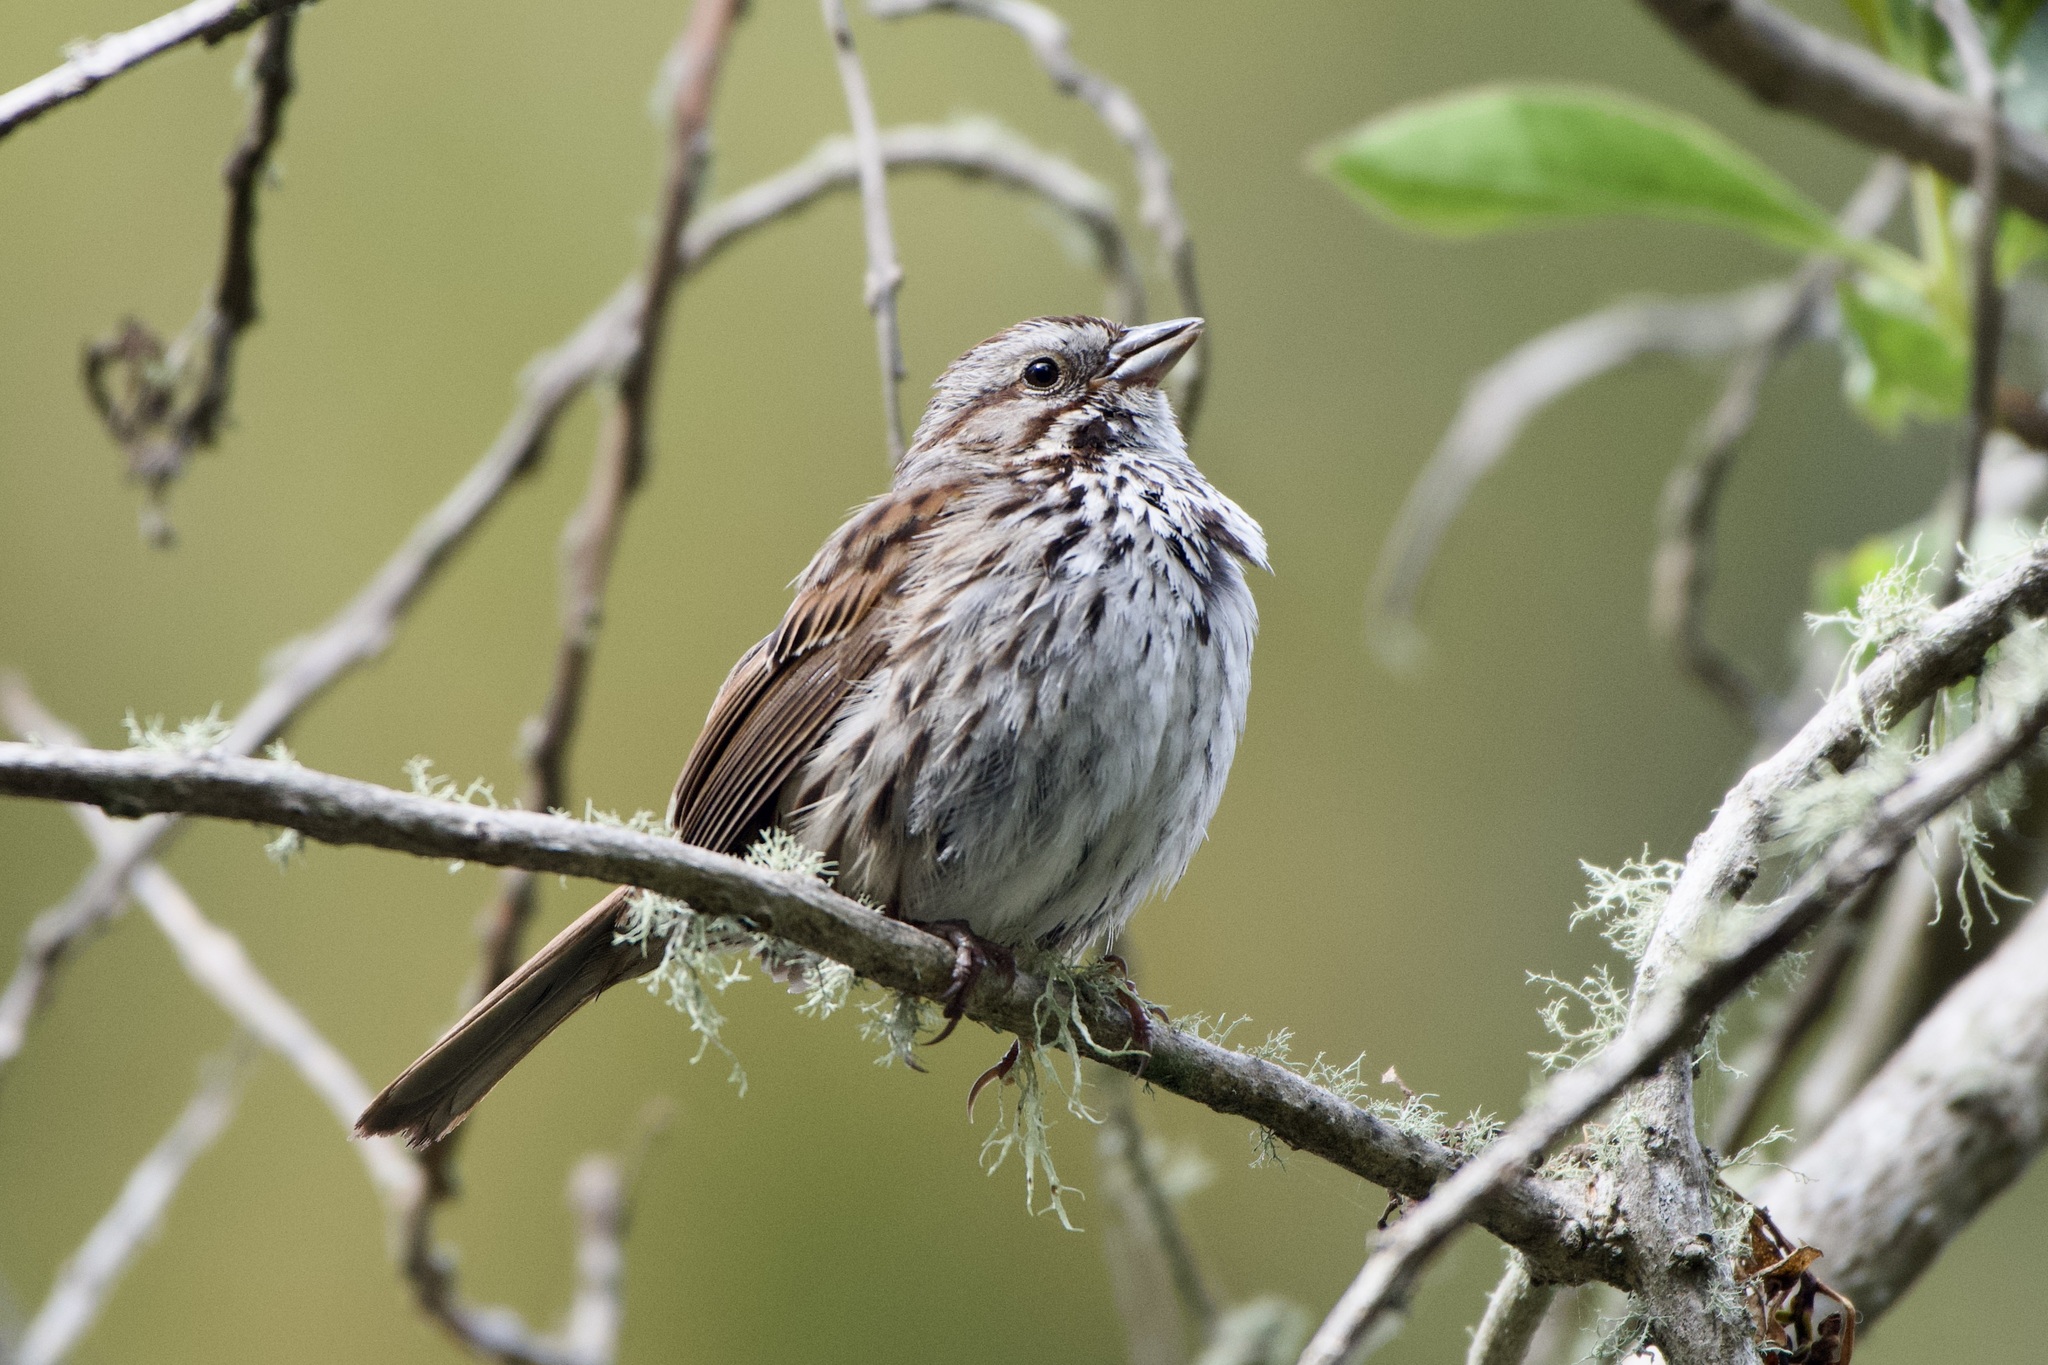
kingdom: Animalia
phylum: Chordata
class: Aves
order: Passeriformes
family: Passerellidae
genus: Melospiza
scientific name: Melospiza melodia
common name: Song sparrow
